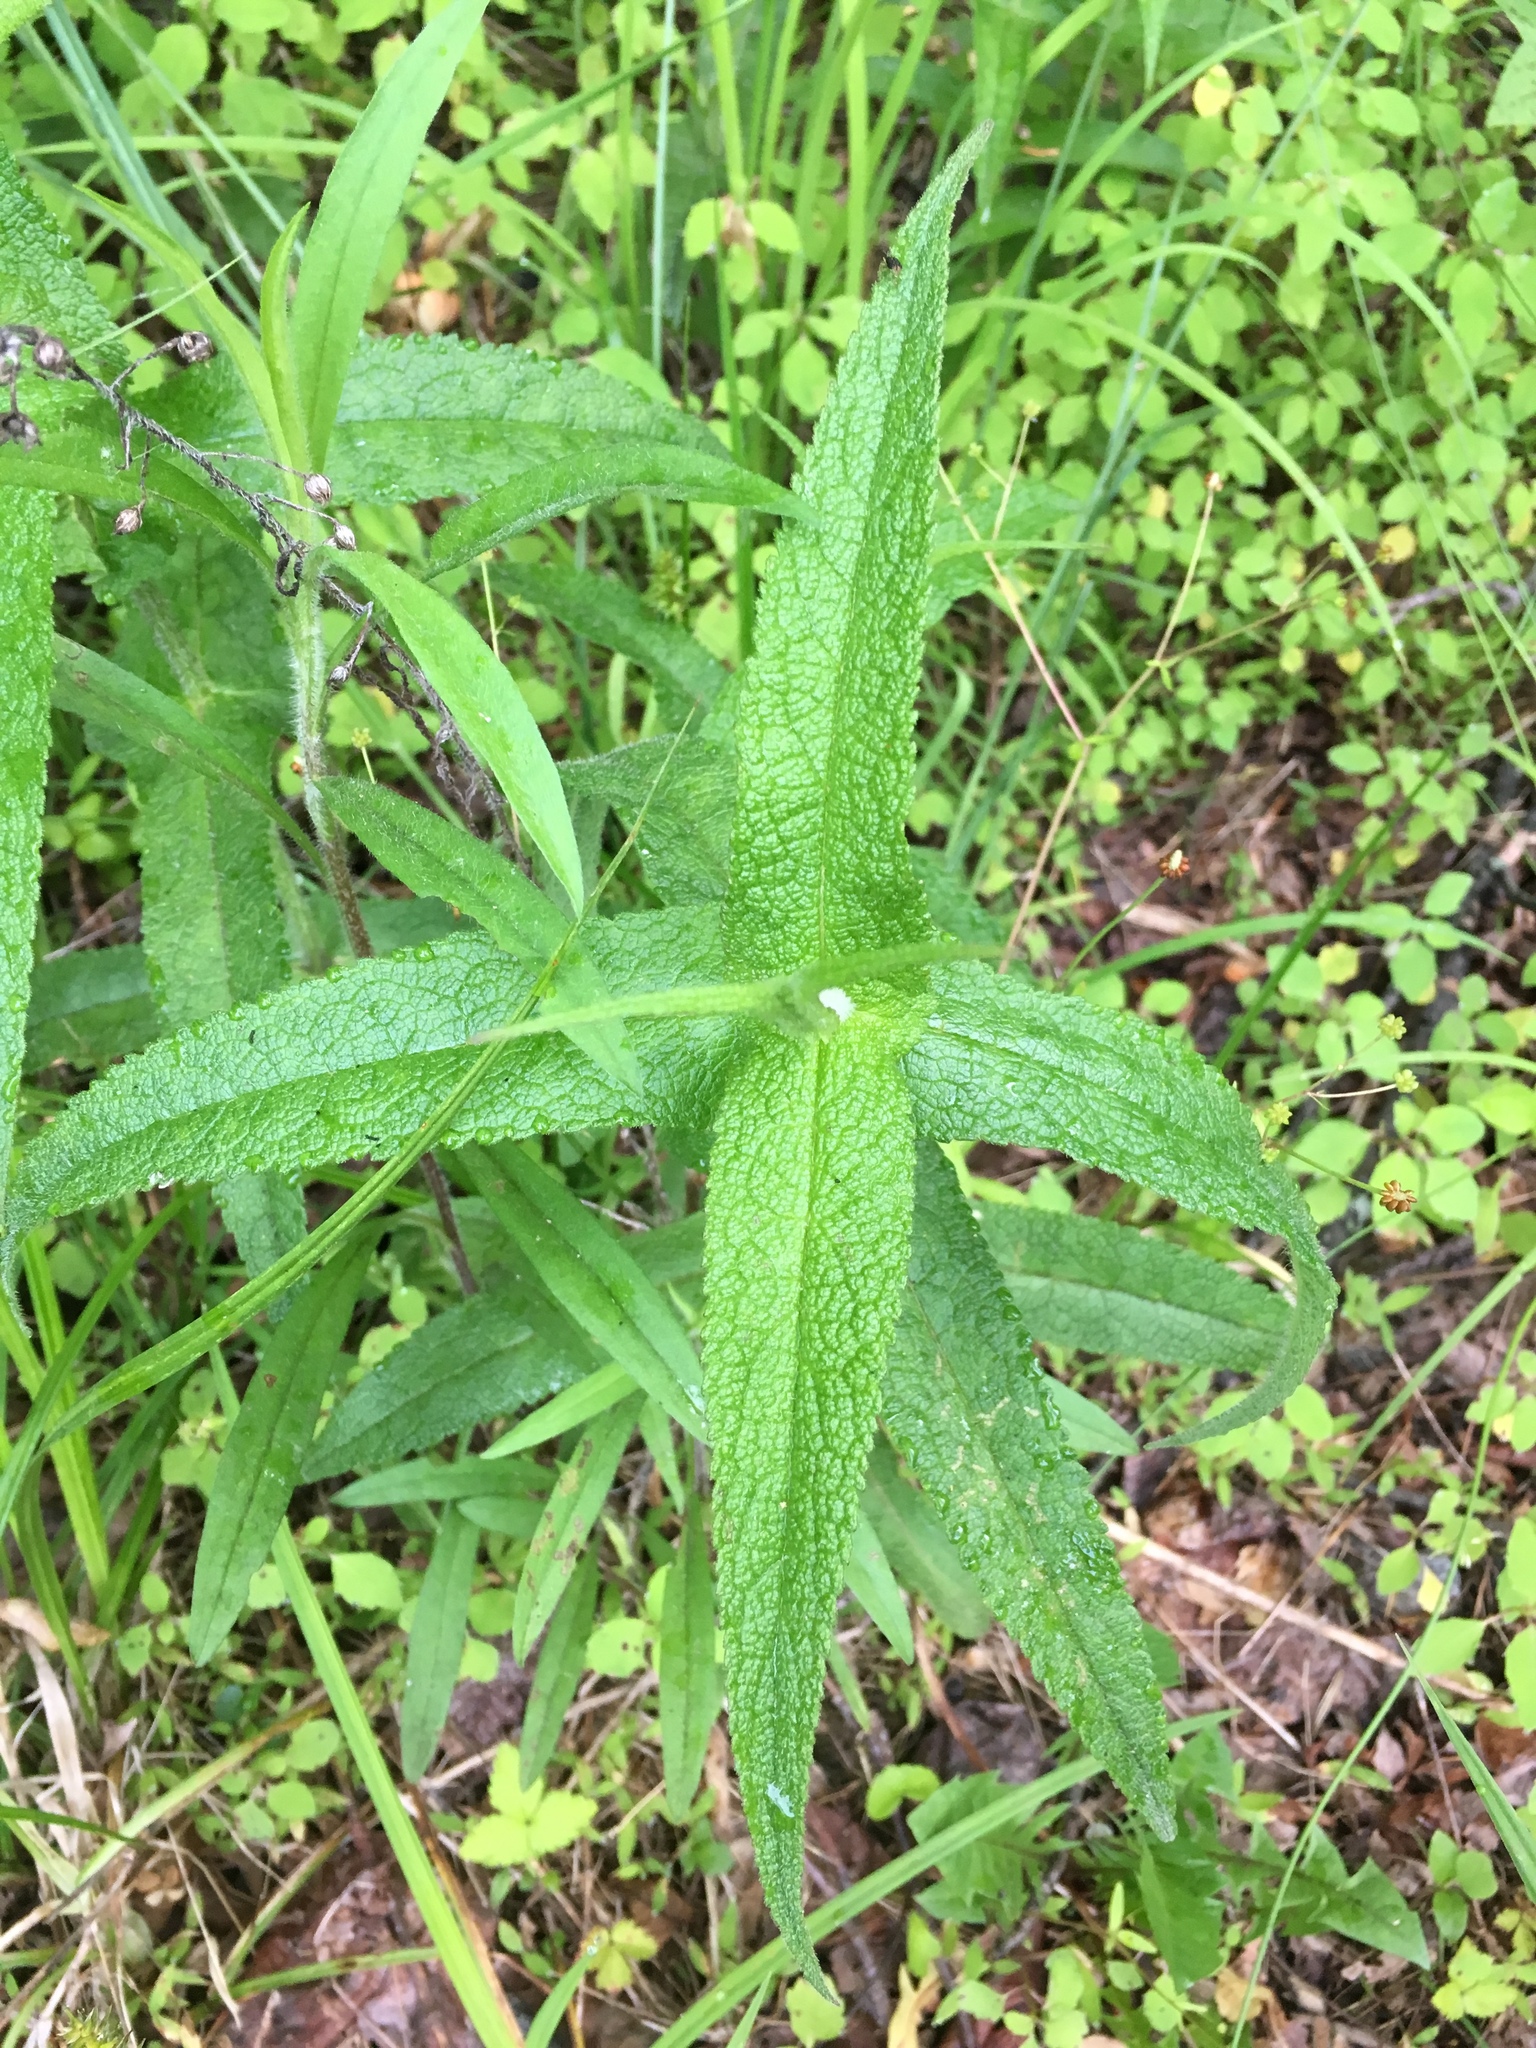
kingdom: Plantae
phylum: Tracheophyta
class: Magnoliopsida
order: Asterales
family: Asteraceae
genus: Eupatorium
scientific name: Eupatorium perfoliatum
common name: Boneset
